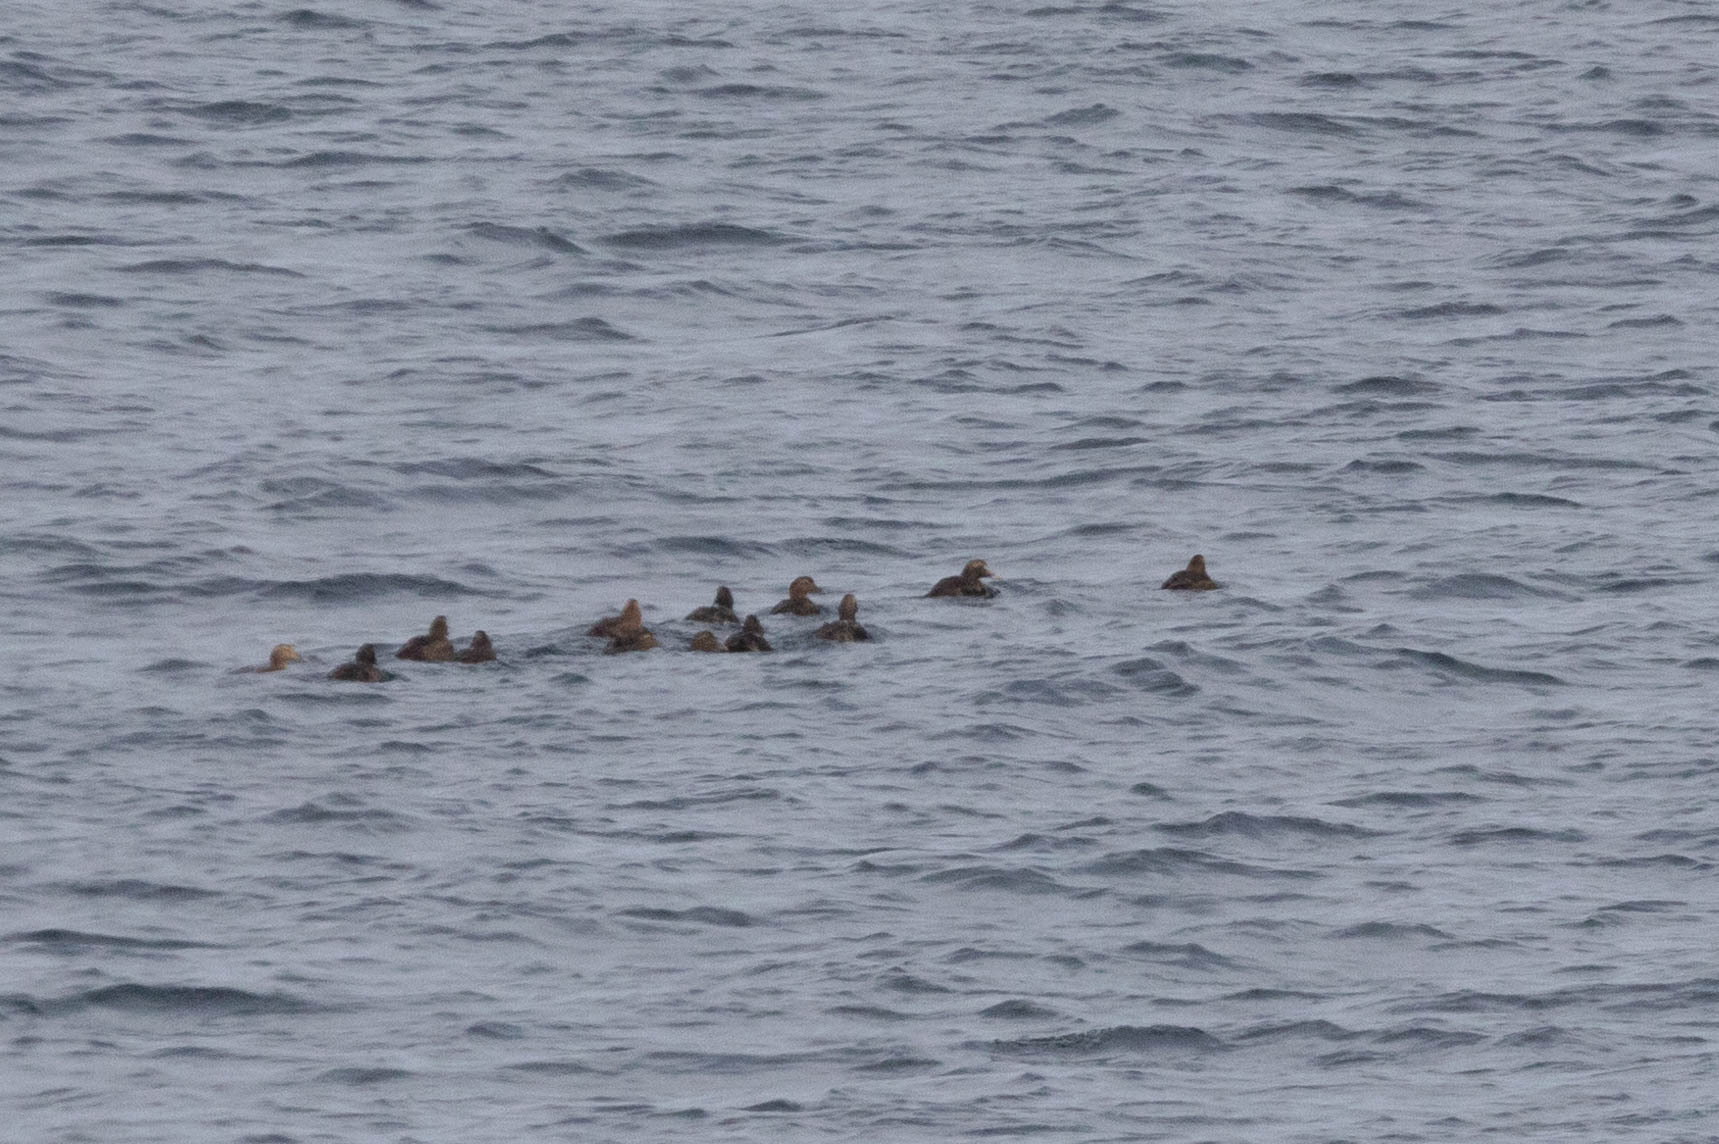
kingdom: Animalia
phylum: Chordata
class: Aves
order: Anseriformes
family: Anatidae
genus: Somateria
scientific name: Somateria mollissima
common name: Common eider
